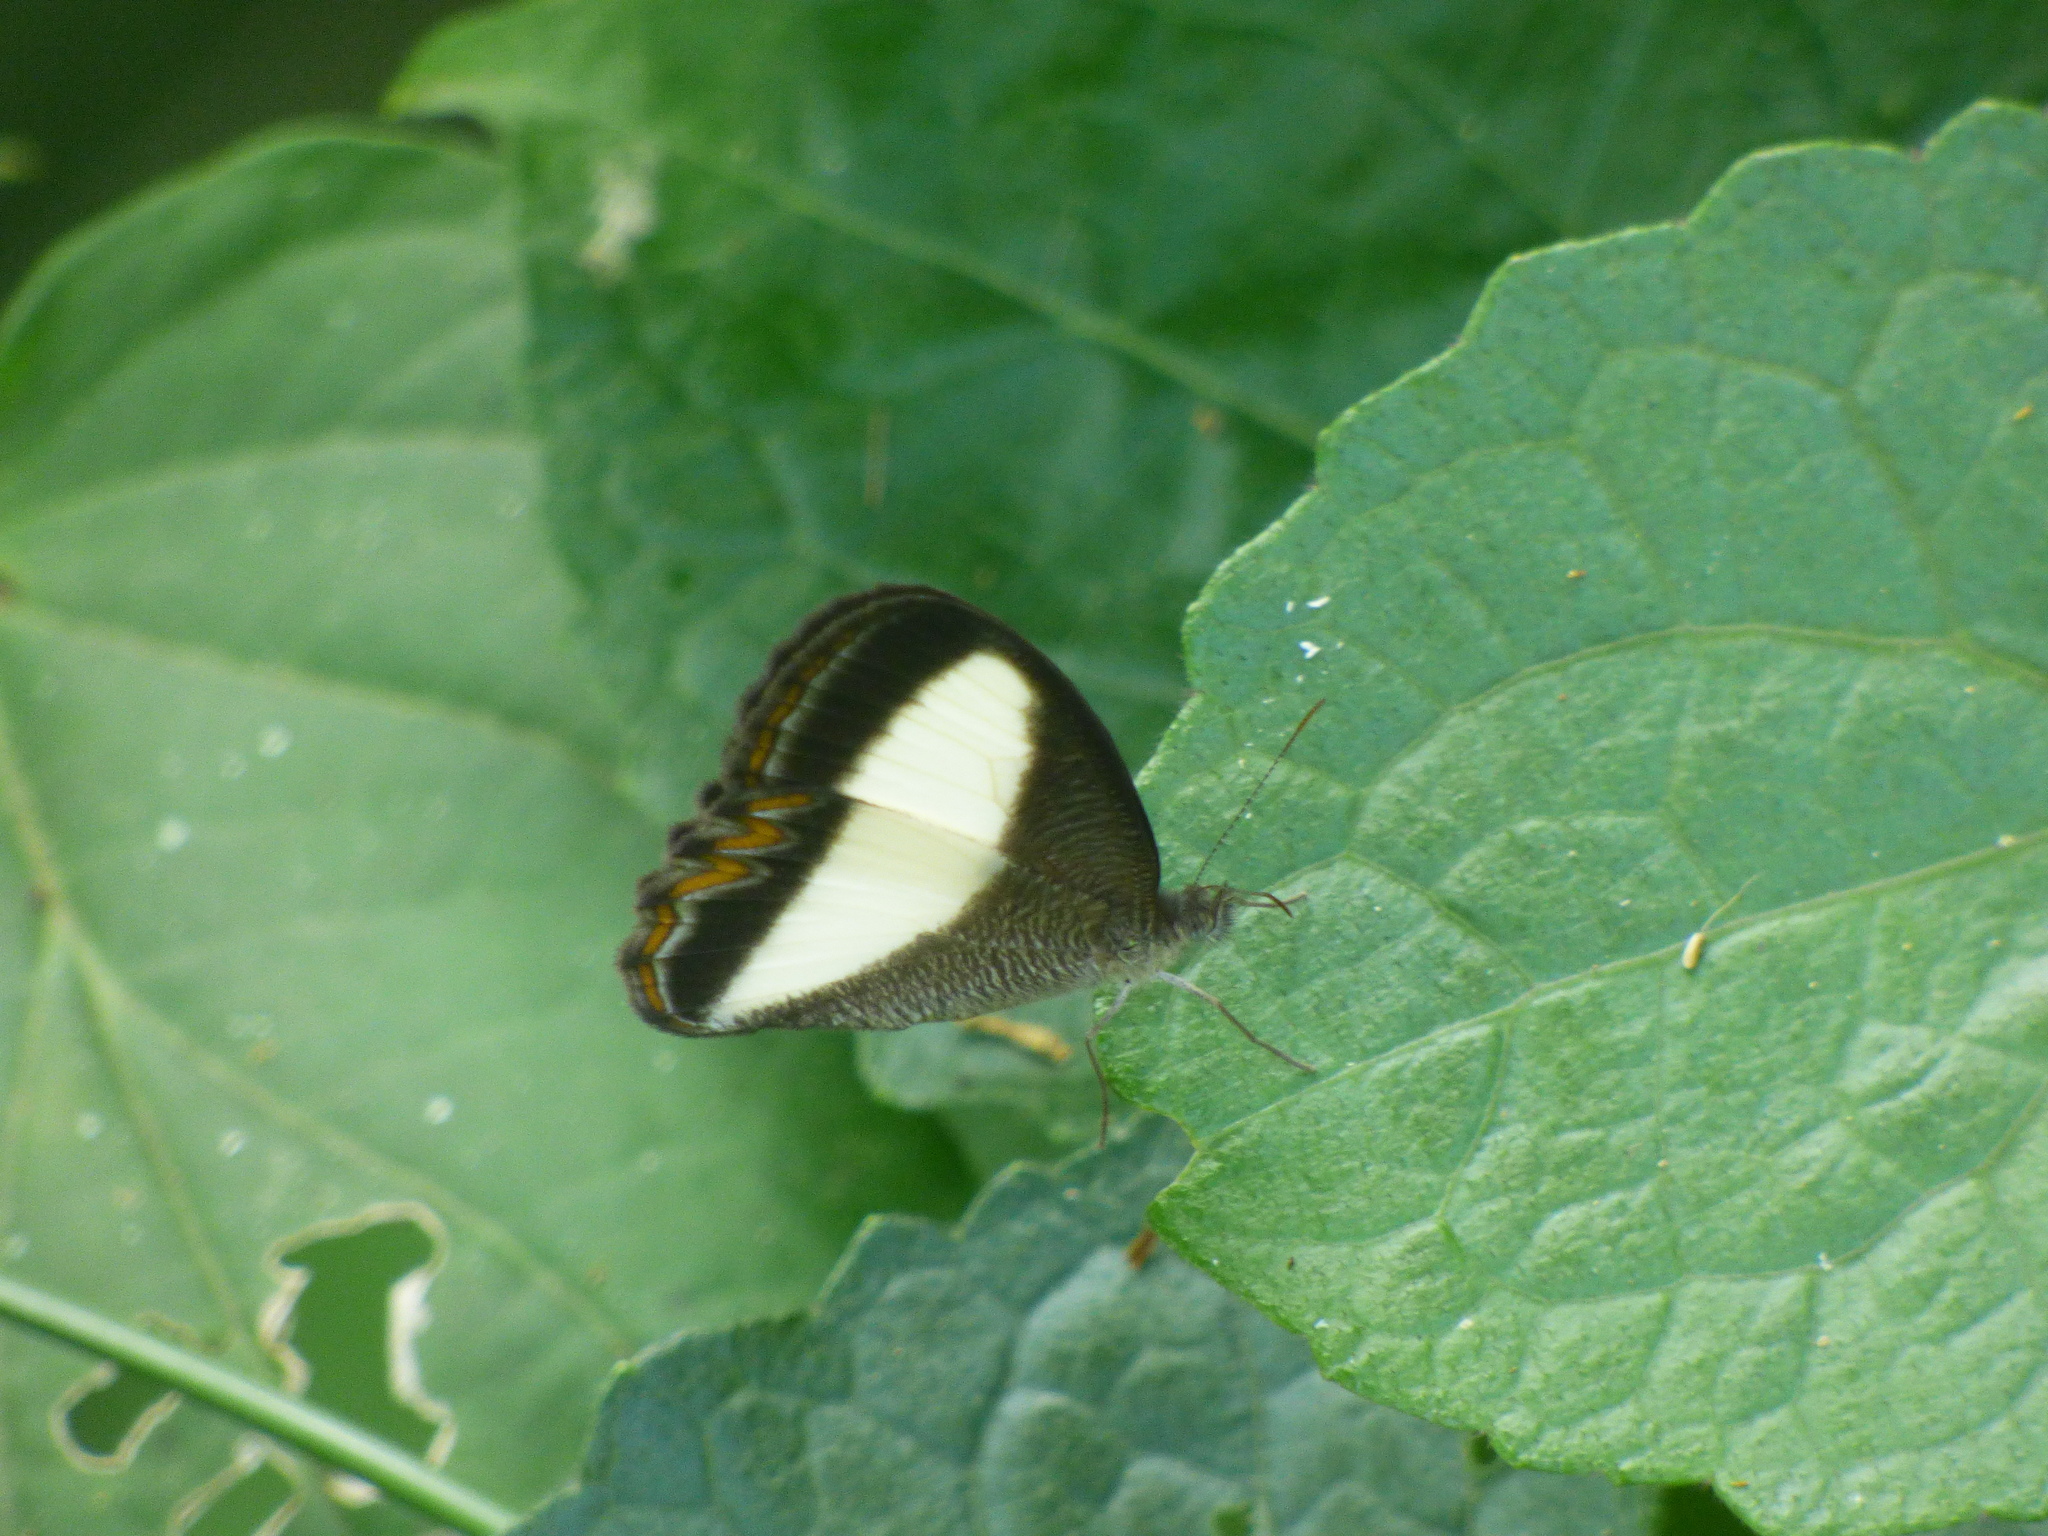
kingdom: Animalia
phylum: Arthropoda
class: Insecta
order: Lepidoptera
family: Nymphalidae
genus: Oressinoma
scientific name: Oressinoma typhla
